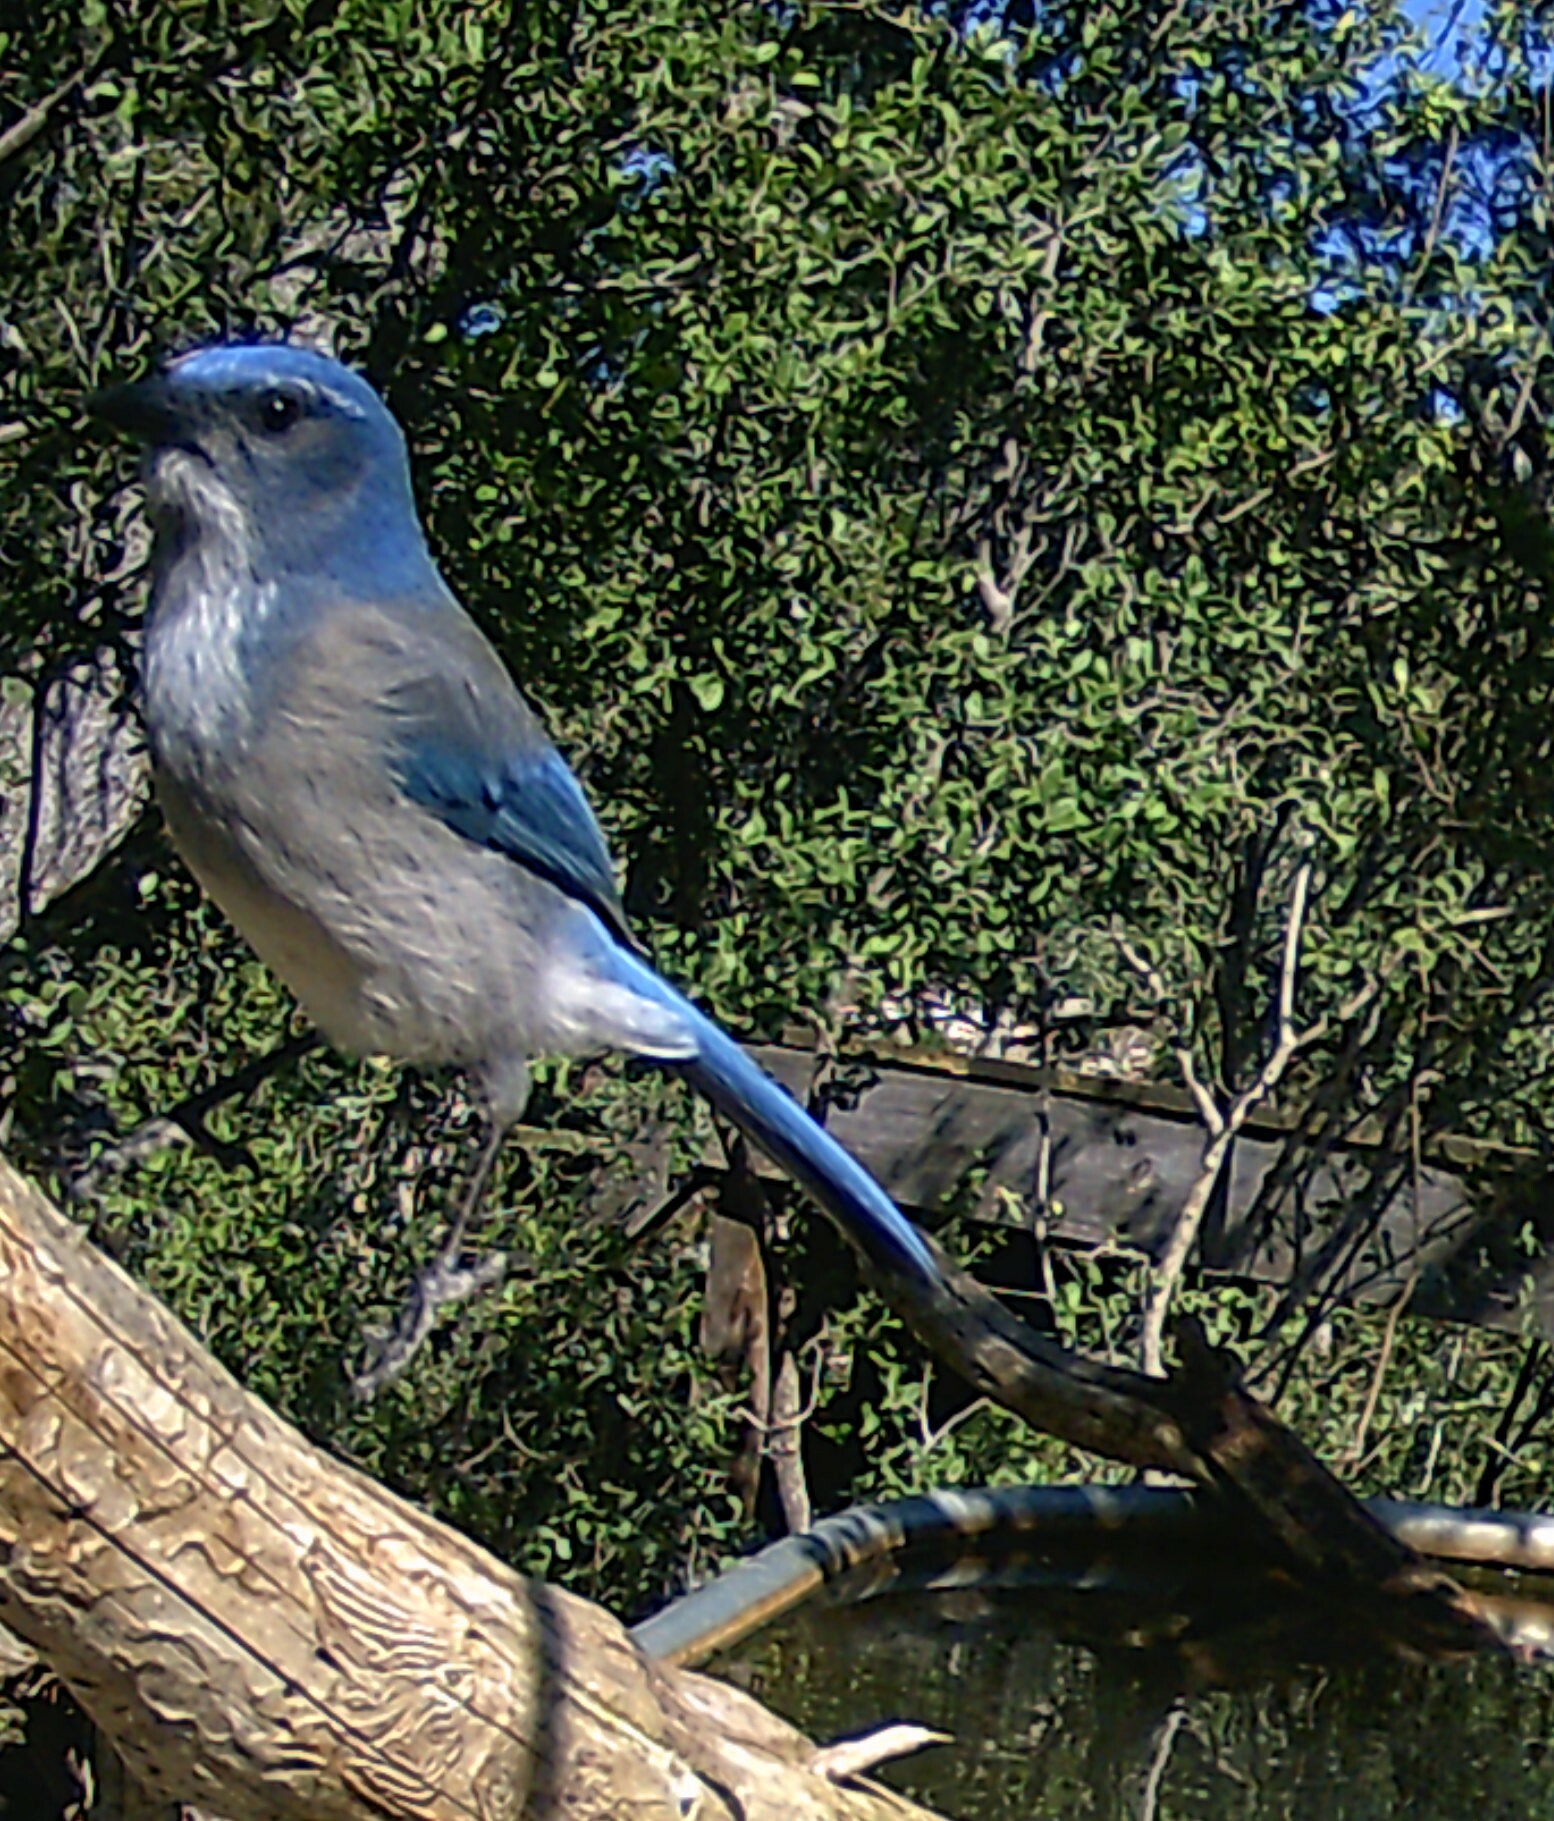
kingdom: Animalia
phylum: Chordata
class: Aves
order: Passeriformes
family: Corvidae
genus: Aphelocoma
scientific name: Aphelocoma woodhouseii
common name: Woodhouse's scrub-jay
